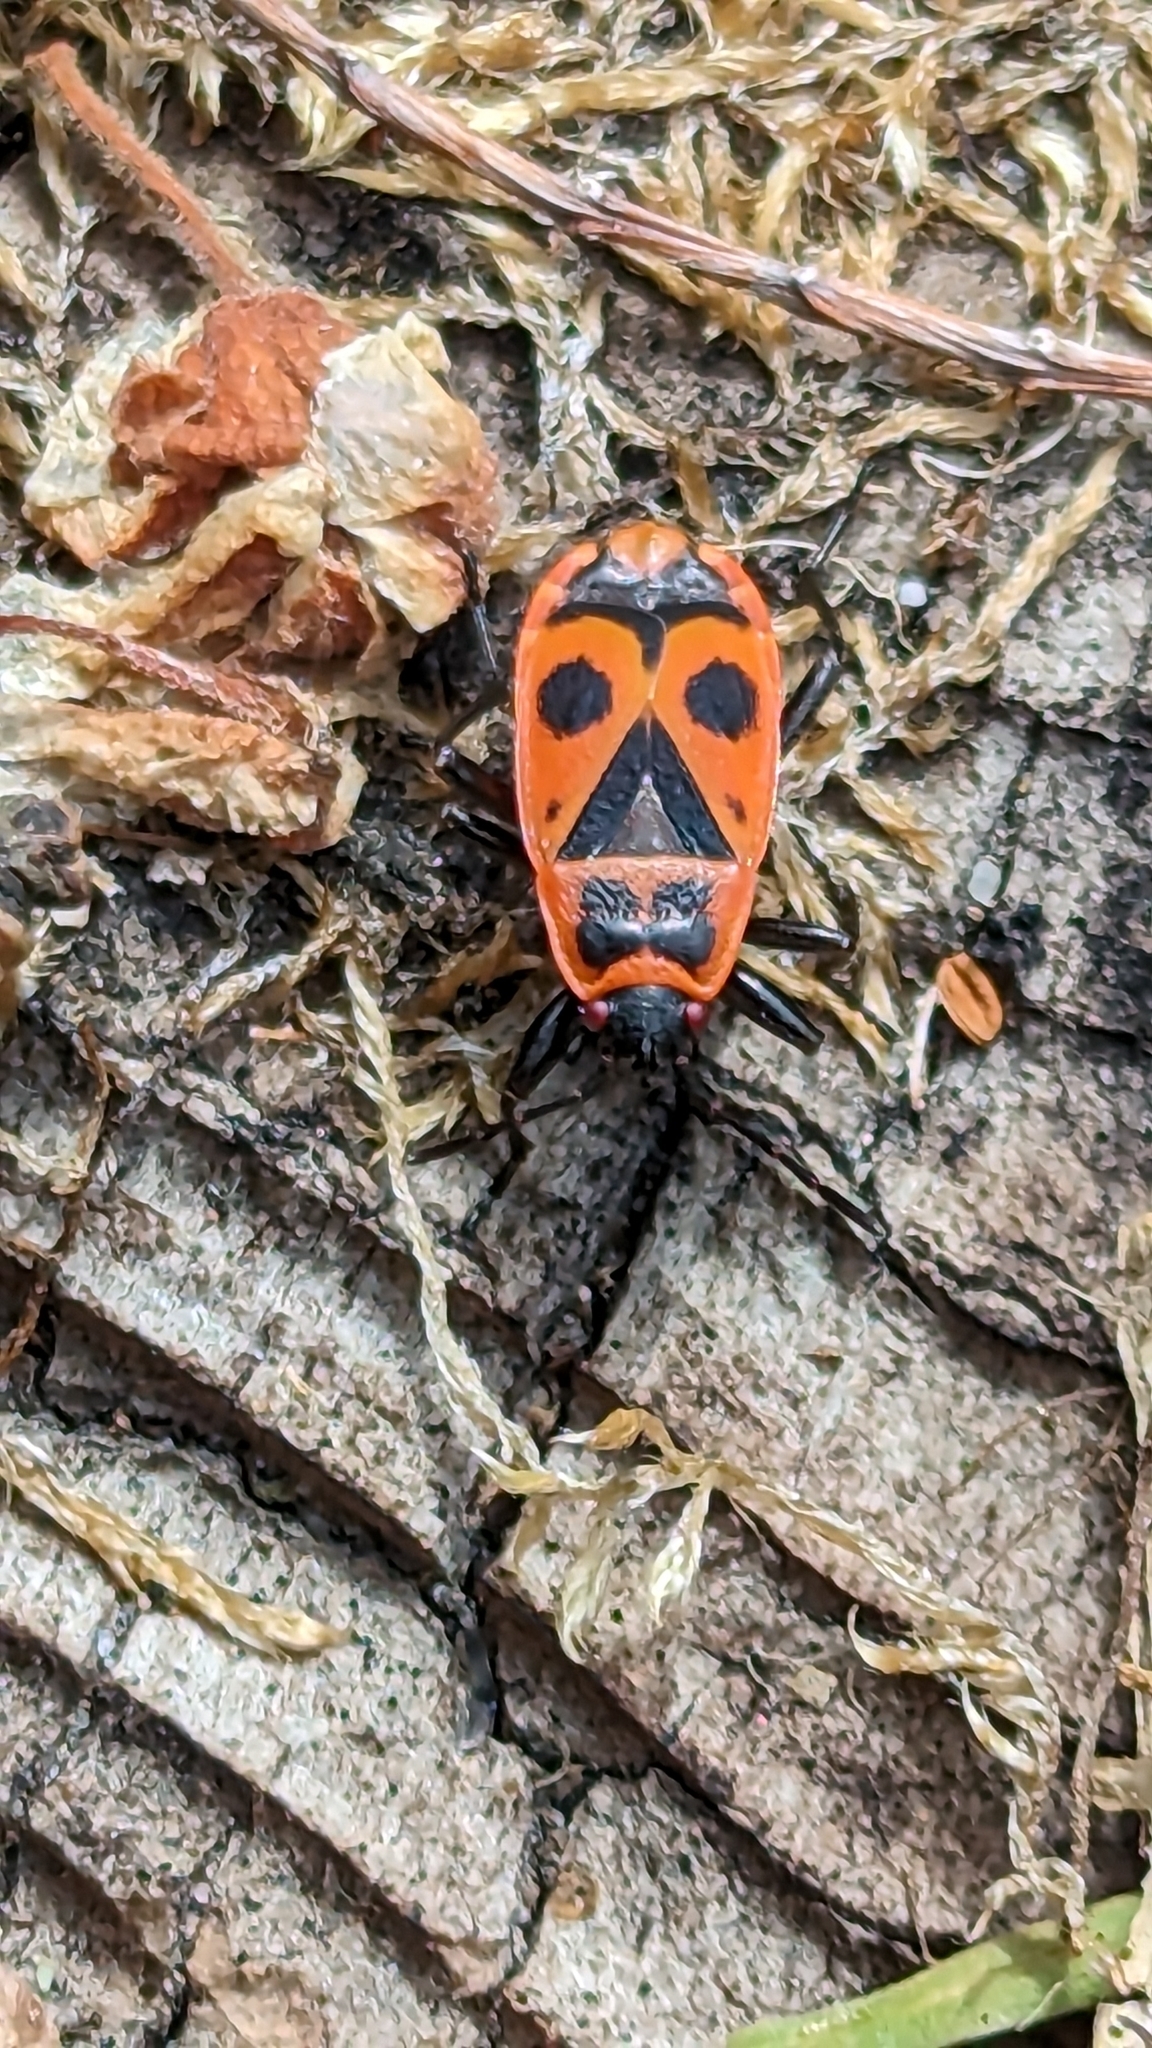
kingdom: Animalia
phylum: Arthropoda
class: Insecta
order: Hemiptera
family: Pyrrhocoridae
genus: Pyrrhocoris
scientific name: Pyrrhocoris apterus
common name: Firebug
